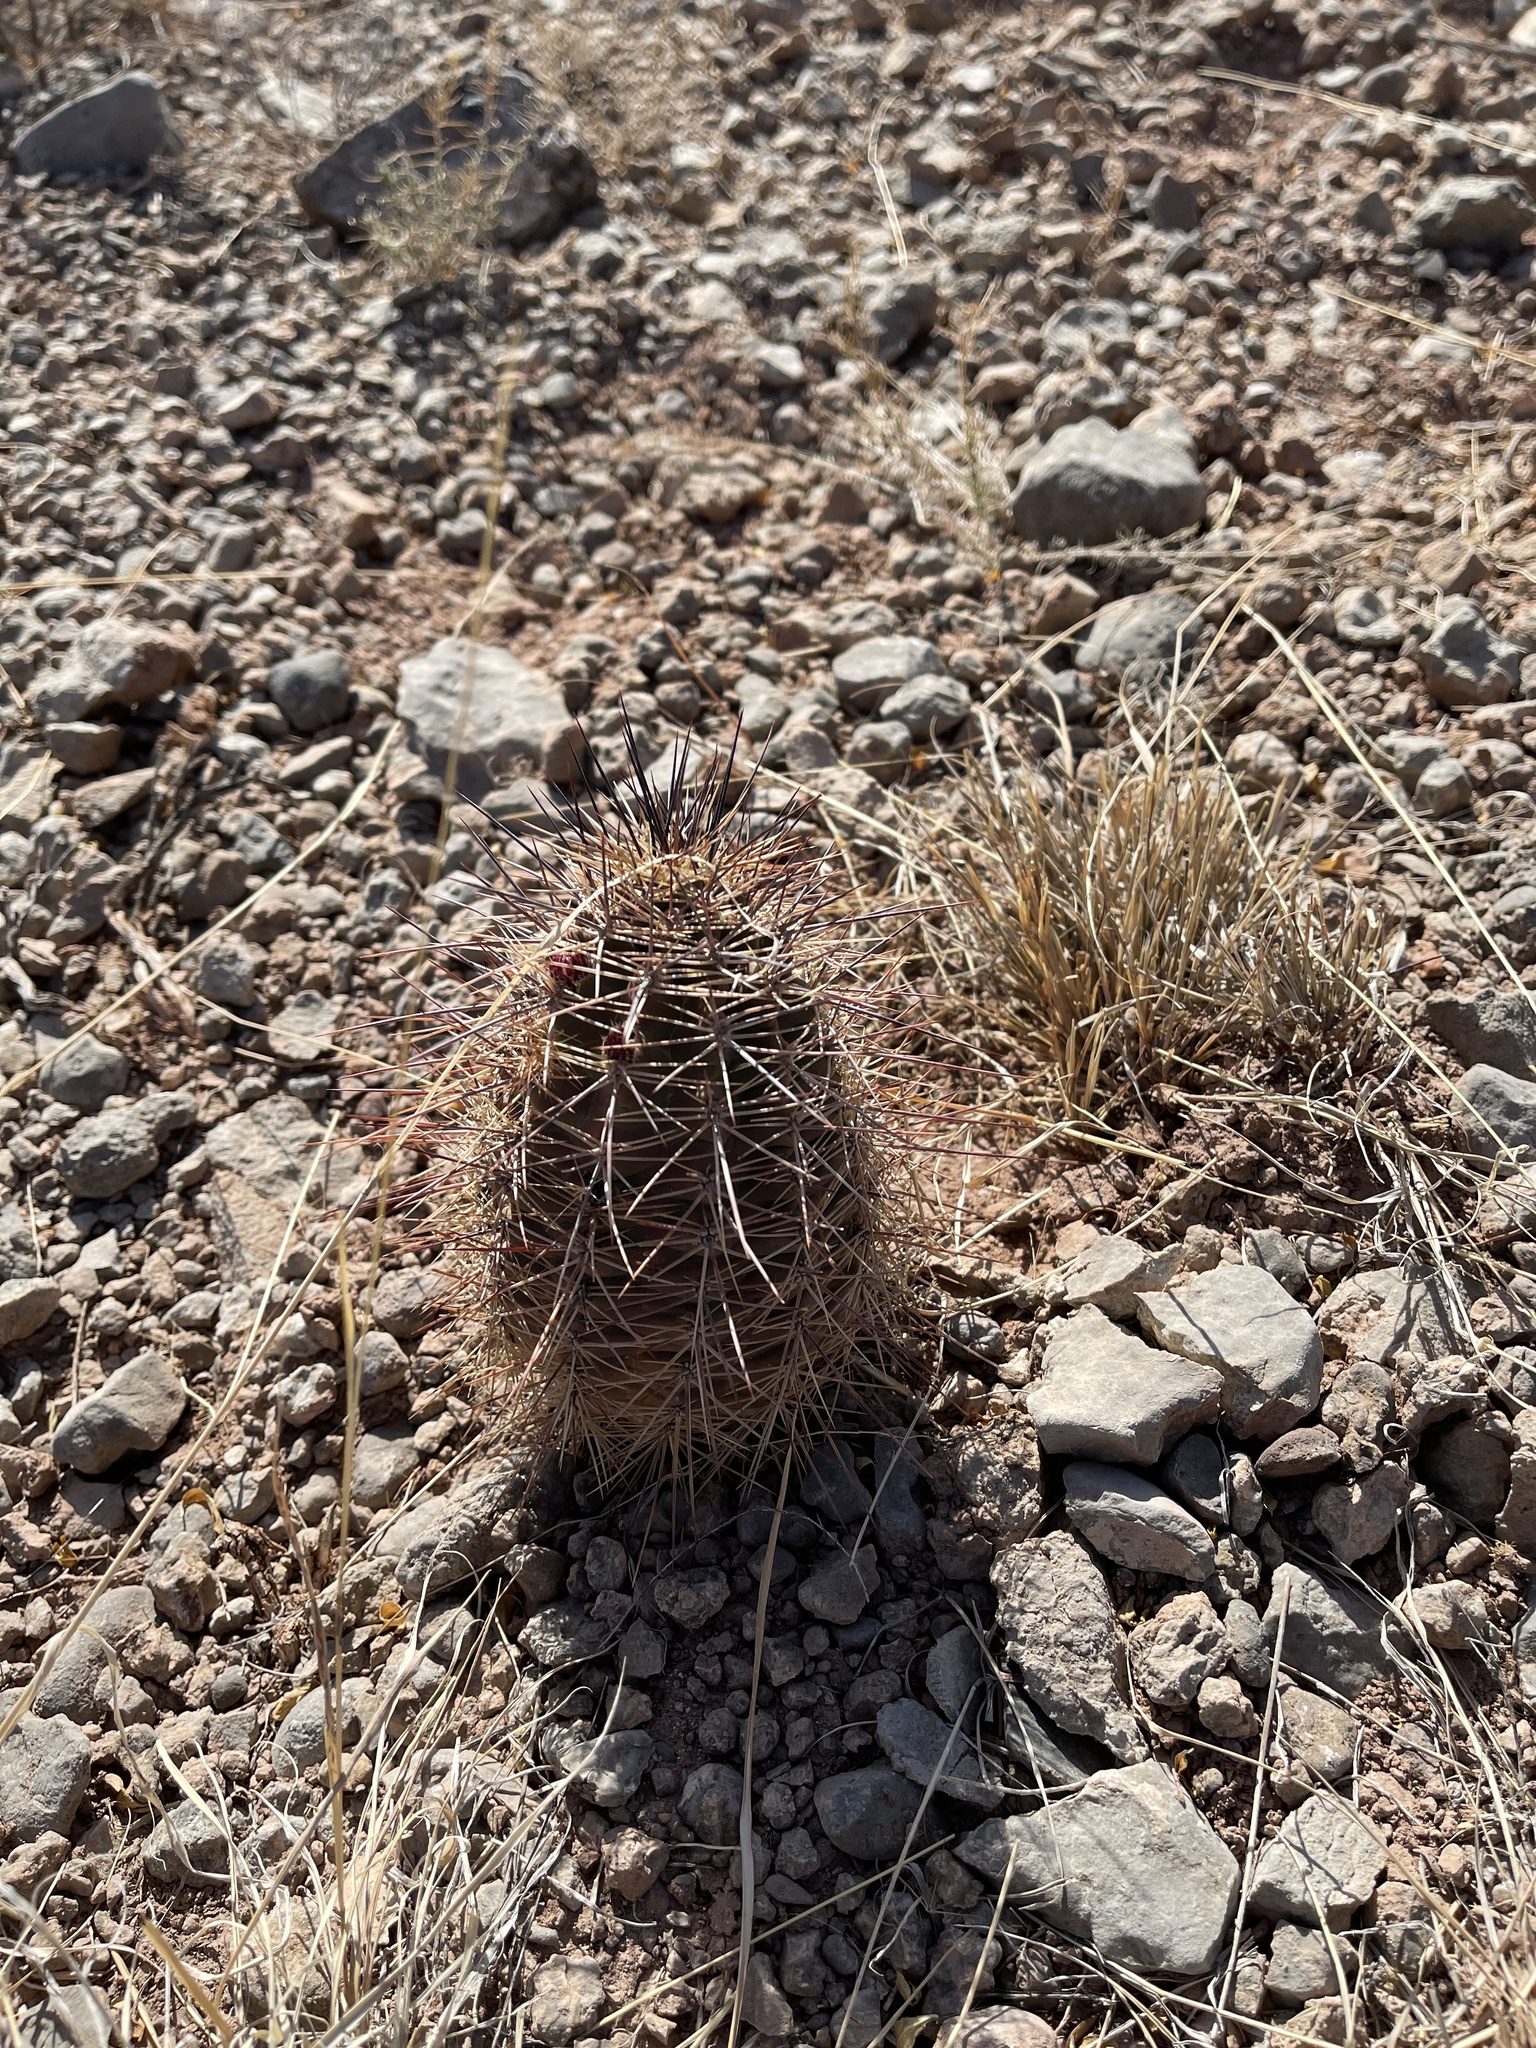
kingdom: Plantae
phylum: Tracheophyta
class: Magnoliopsida
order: Caryophyllales
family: Cactaceae
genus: Echinocereus
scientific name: Echinocereus coccineus
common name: Scarlet hedgehog cactus
